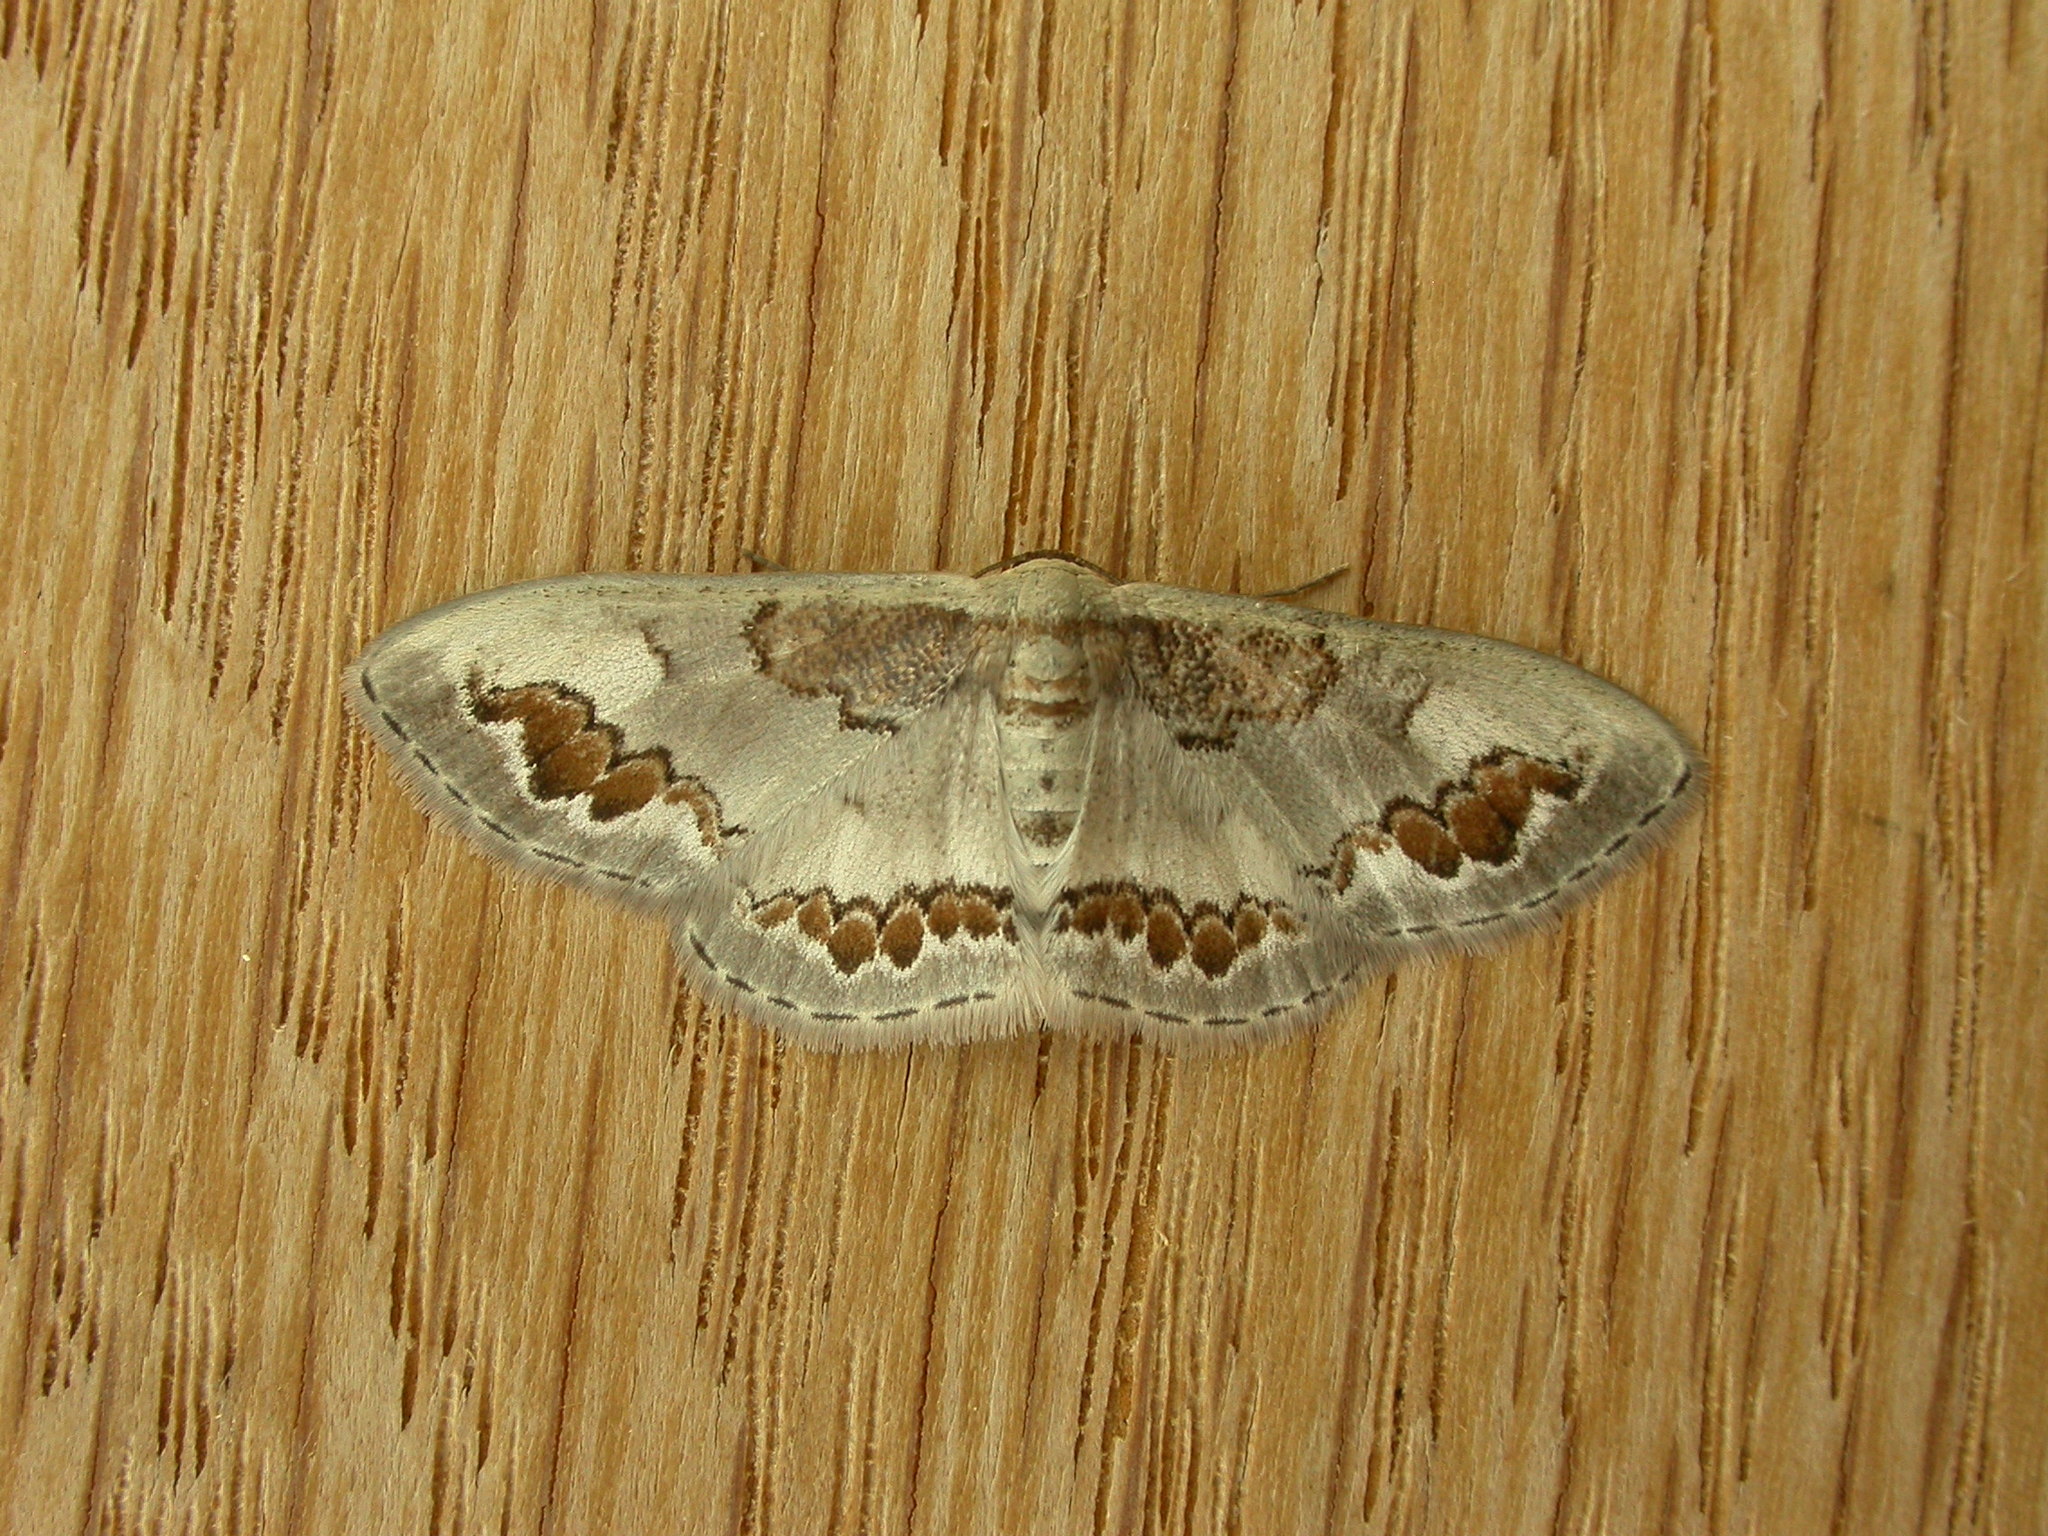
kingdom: Animalia
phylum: Arthropoda
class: Insecta
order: Lepidoptera
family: Geometridae
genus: Dithalama
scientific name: Dithalama cosmospila
